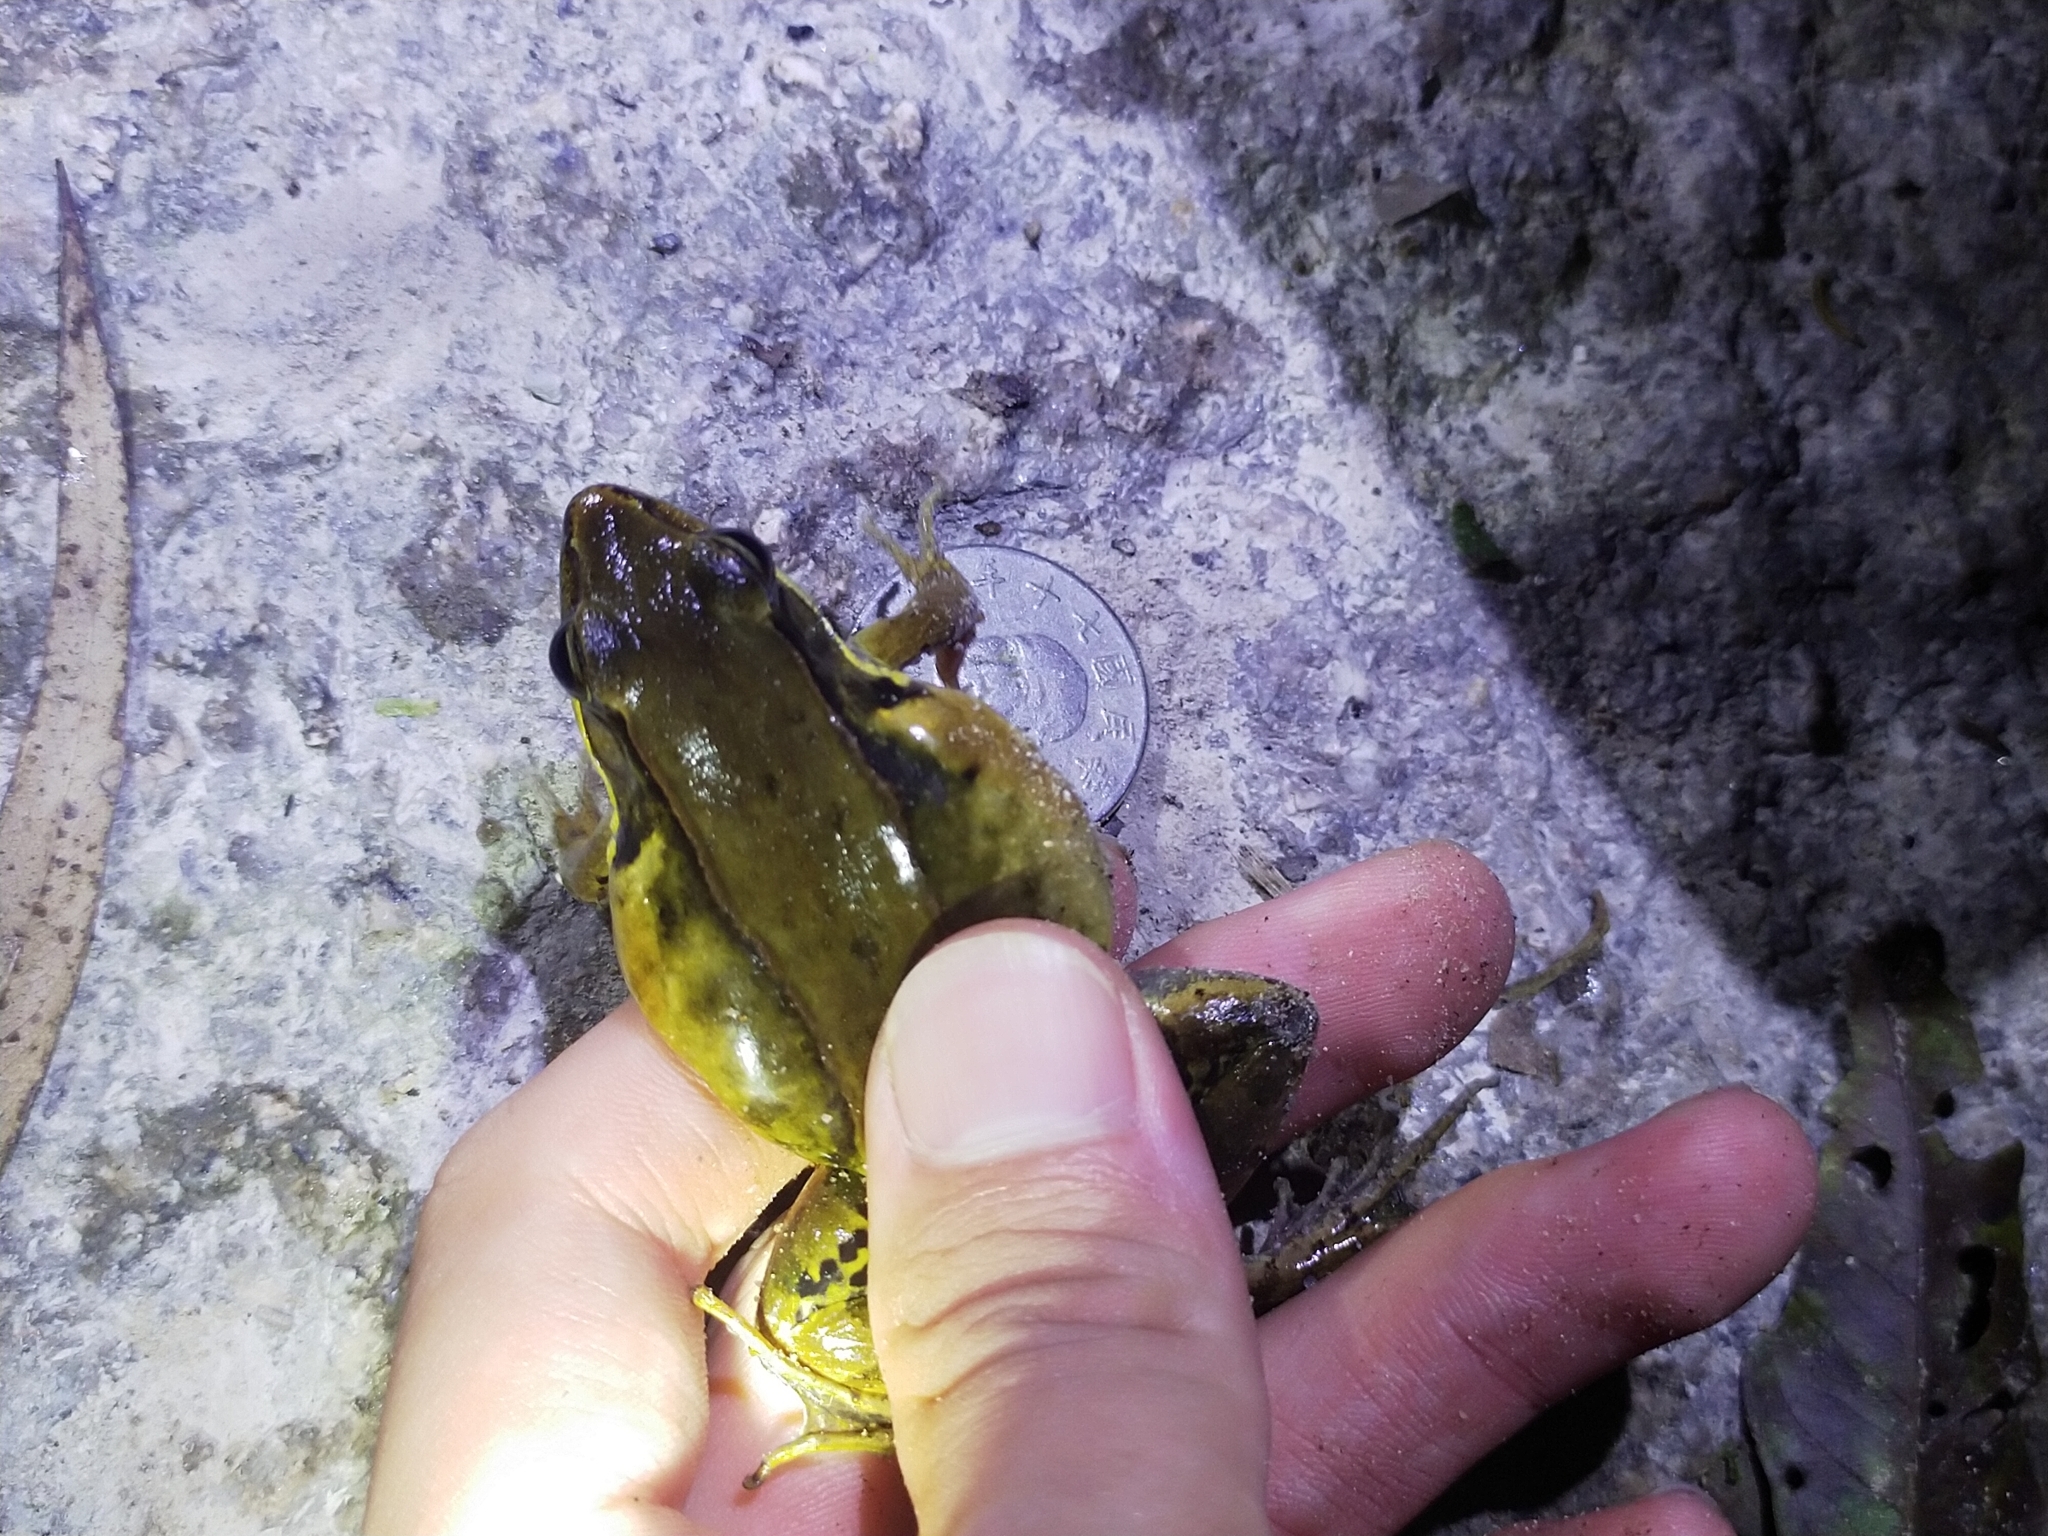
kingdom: Animalia
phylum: Chordata
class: Amphibia
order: Anura
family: Ranidae
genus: Nidirana
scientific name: Nidirana adenopleura
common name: Olive frog
